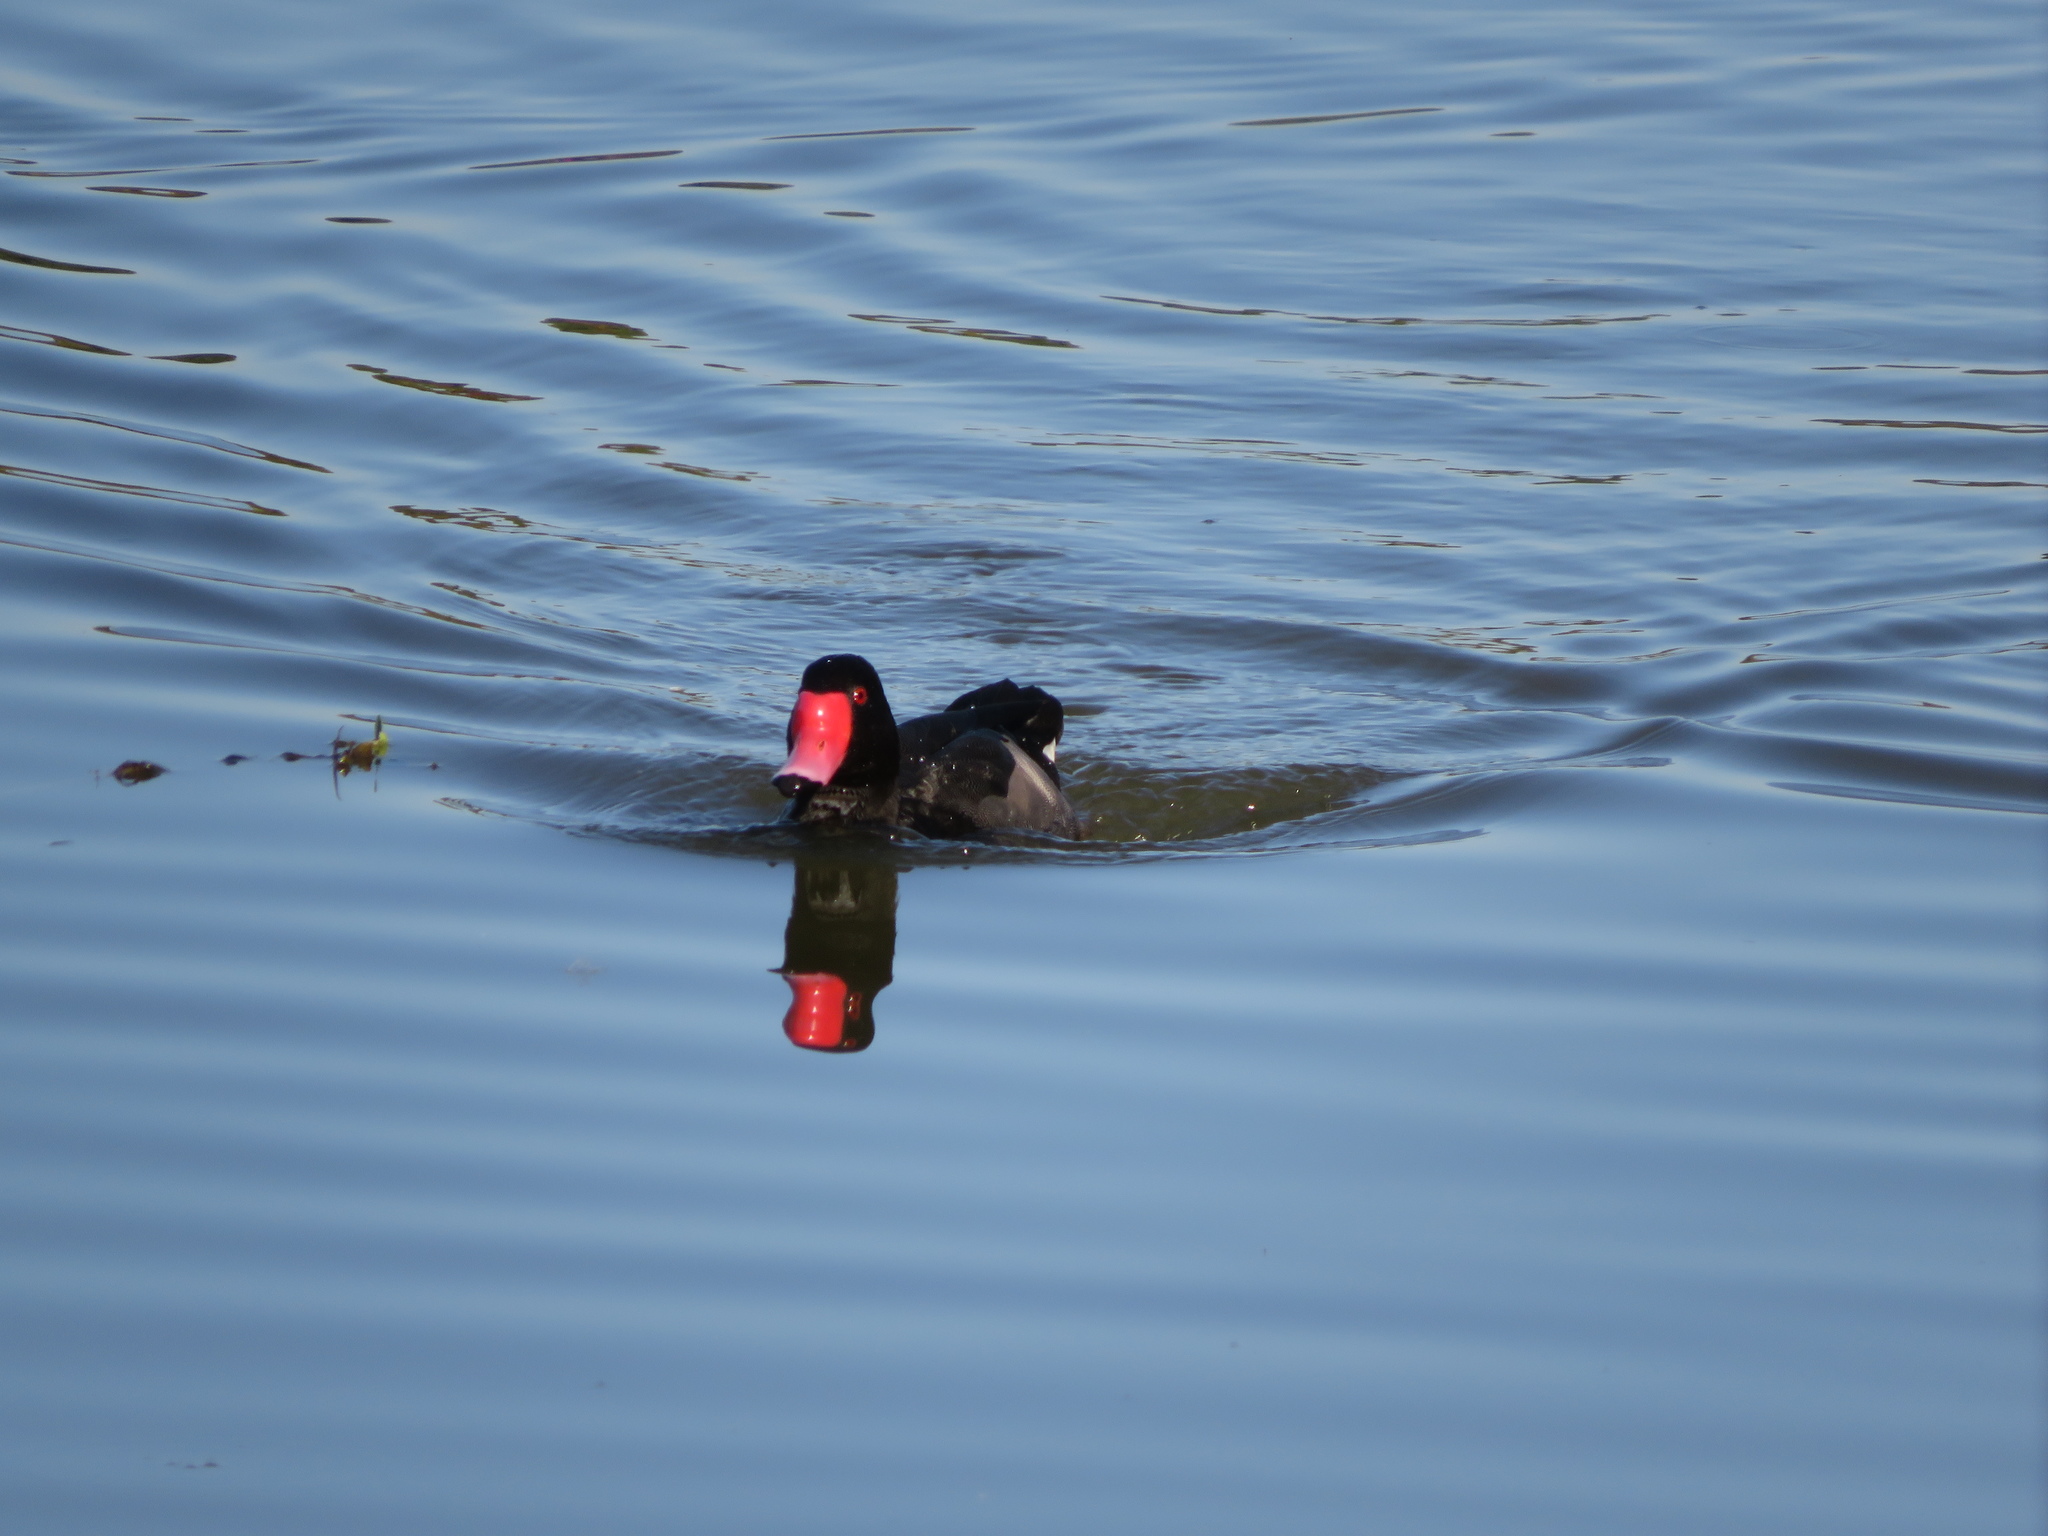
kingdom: Animalia
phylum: Chordata
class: Aves
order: Anseriformes
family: Anatidae
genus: Netta
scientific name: Netta peposaca
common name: Rosy-billed pochard
